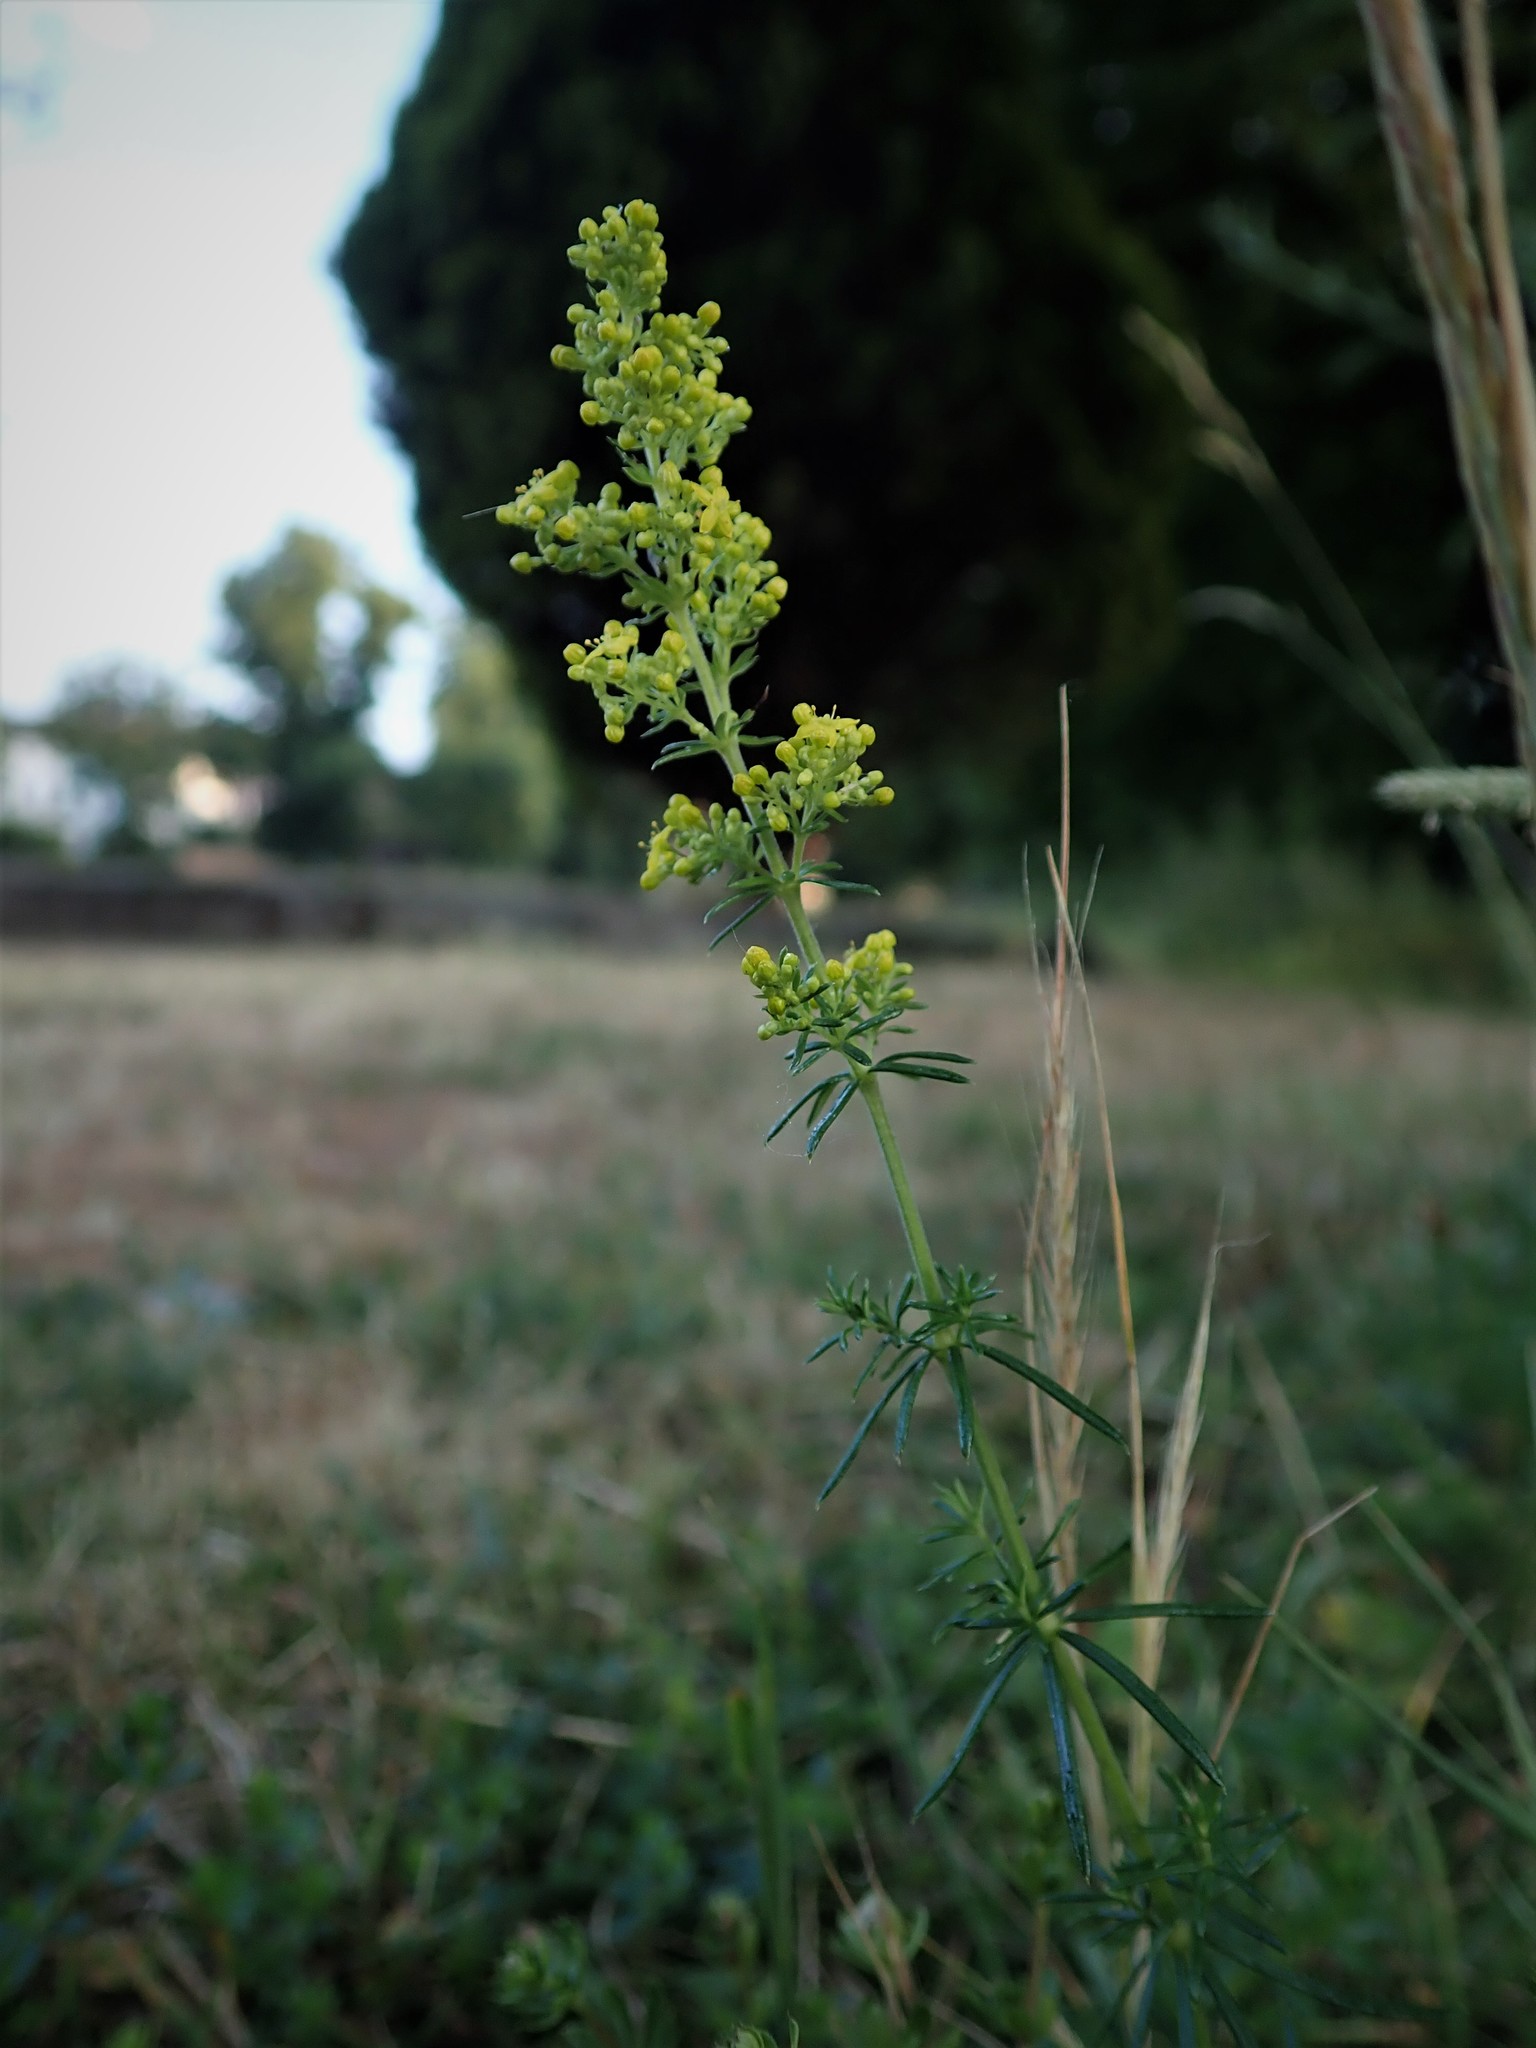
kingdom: Plantae
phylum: Tracheophyta
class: Magnoliopsida
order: Gentianales
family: Rubiaceae
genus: Galium
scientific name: Galium verum
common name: Lady's bedstraw
